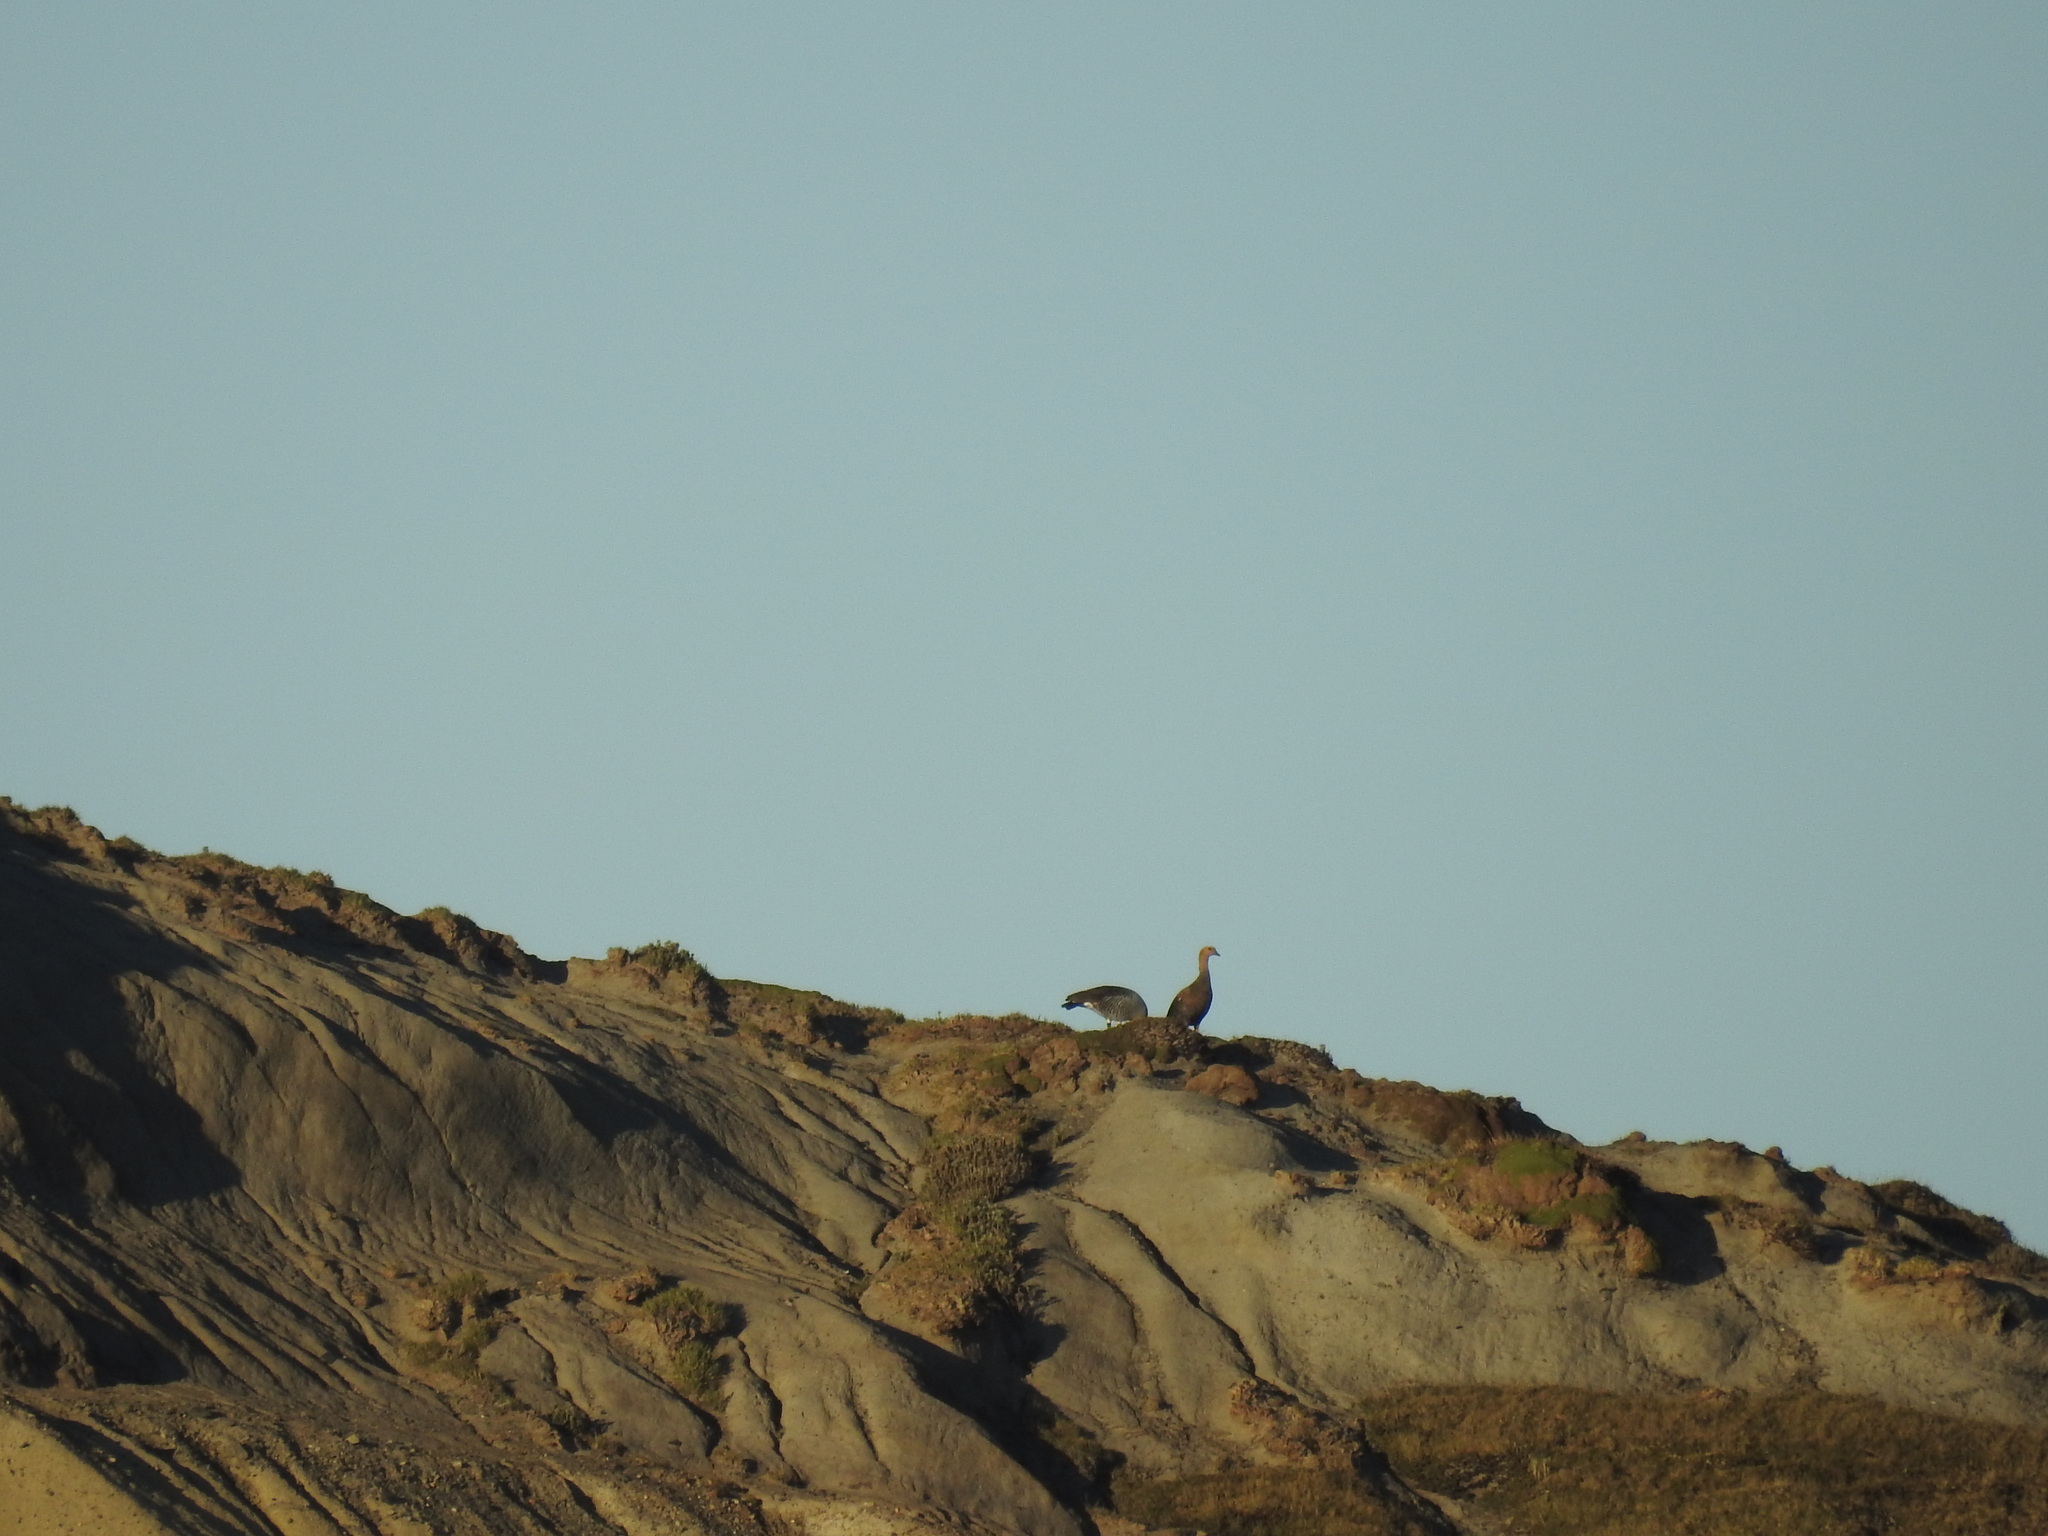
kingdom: Animalia
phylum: Chordata
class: Aves
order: Anseriformes
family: Anatidae
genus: Chloephaga
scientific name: Chloephaga picta
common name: Upland goose
